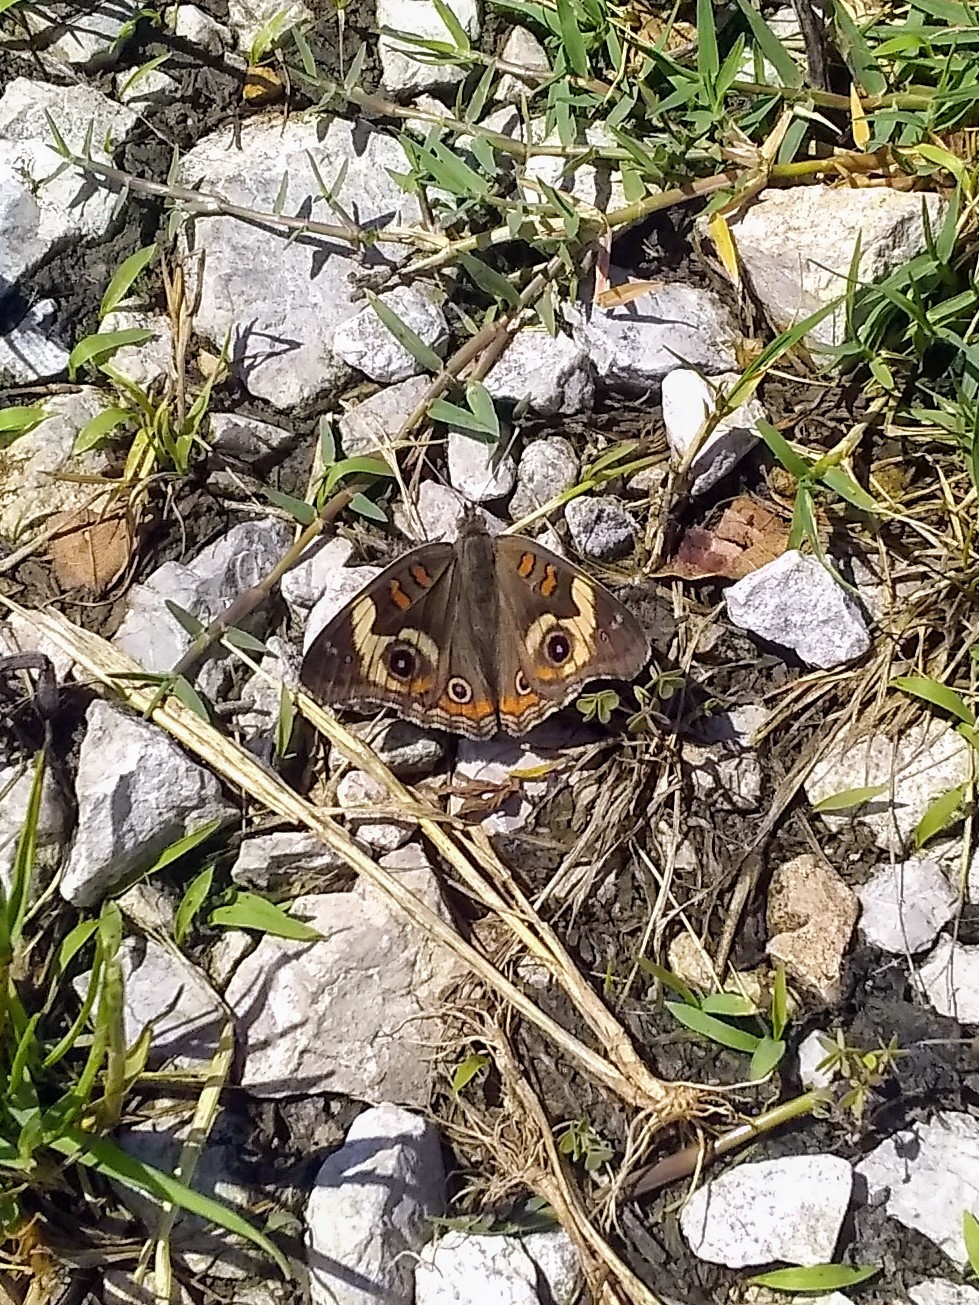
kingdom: Animalia
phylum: Arthropoda
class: Insecta
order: Lepidoptera
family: Nymphalidae
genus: Junonia
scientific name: Junonia coenia
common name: Common buckeye
